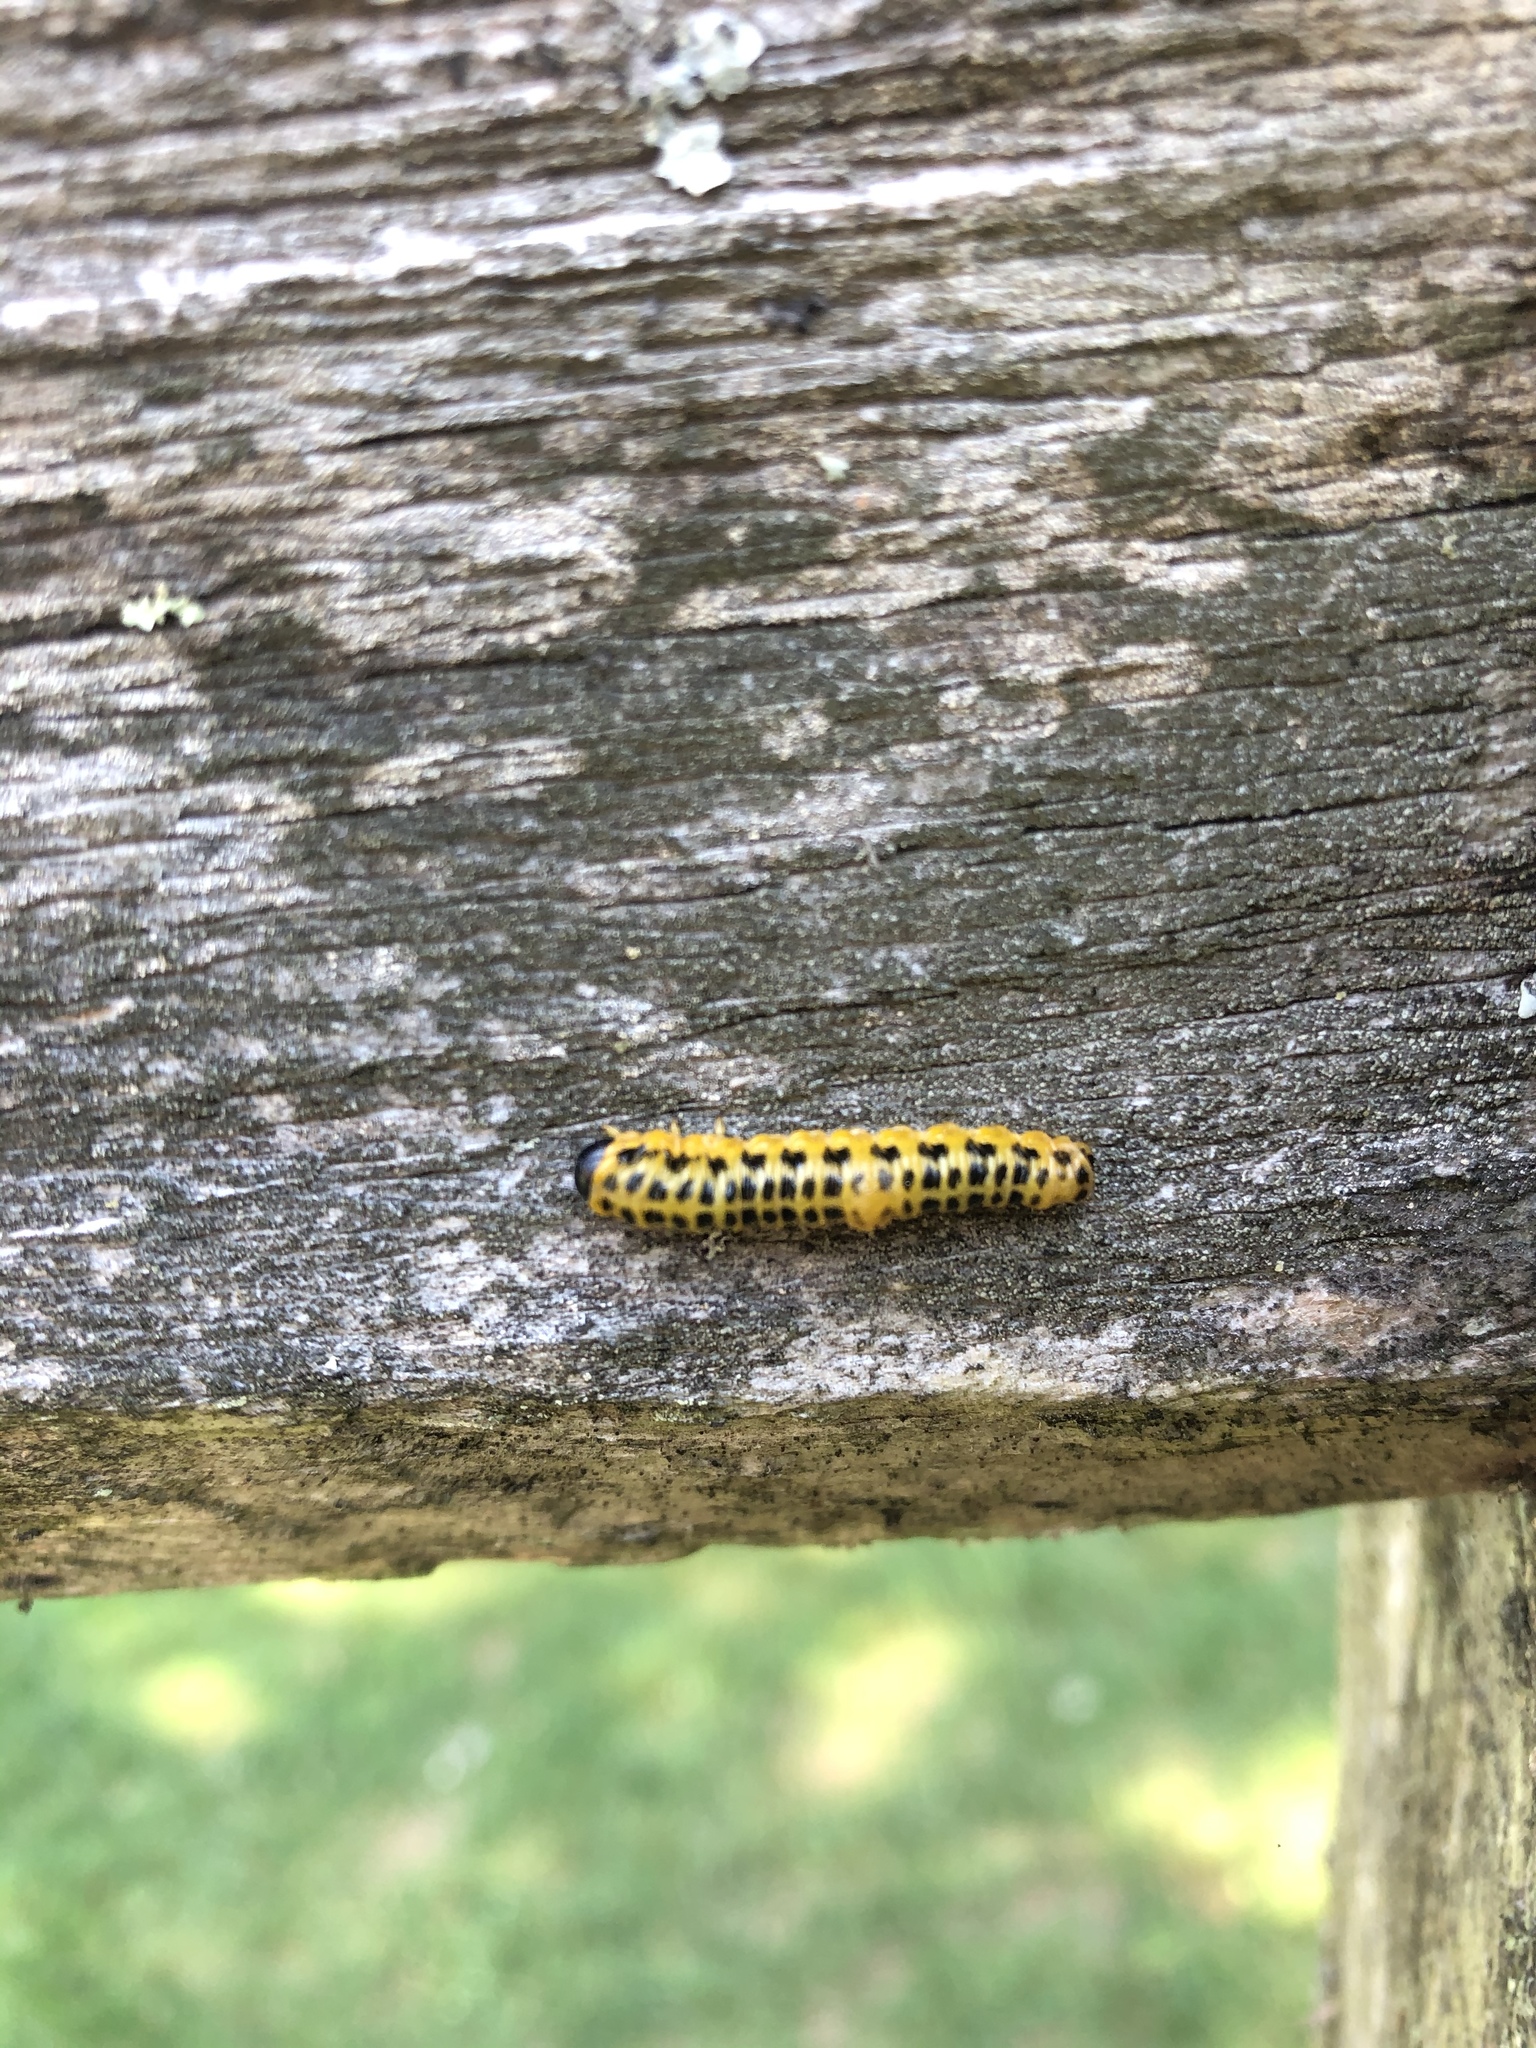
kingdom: Animalia
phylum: Arthropoda
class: Insecta
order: Hymenoptera
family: Tenthredinidae
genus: Macremphytus
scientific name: Macremphytus testaceus
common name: Dogwood sawfly
